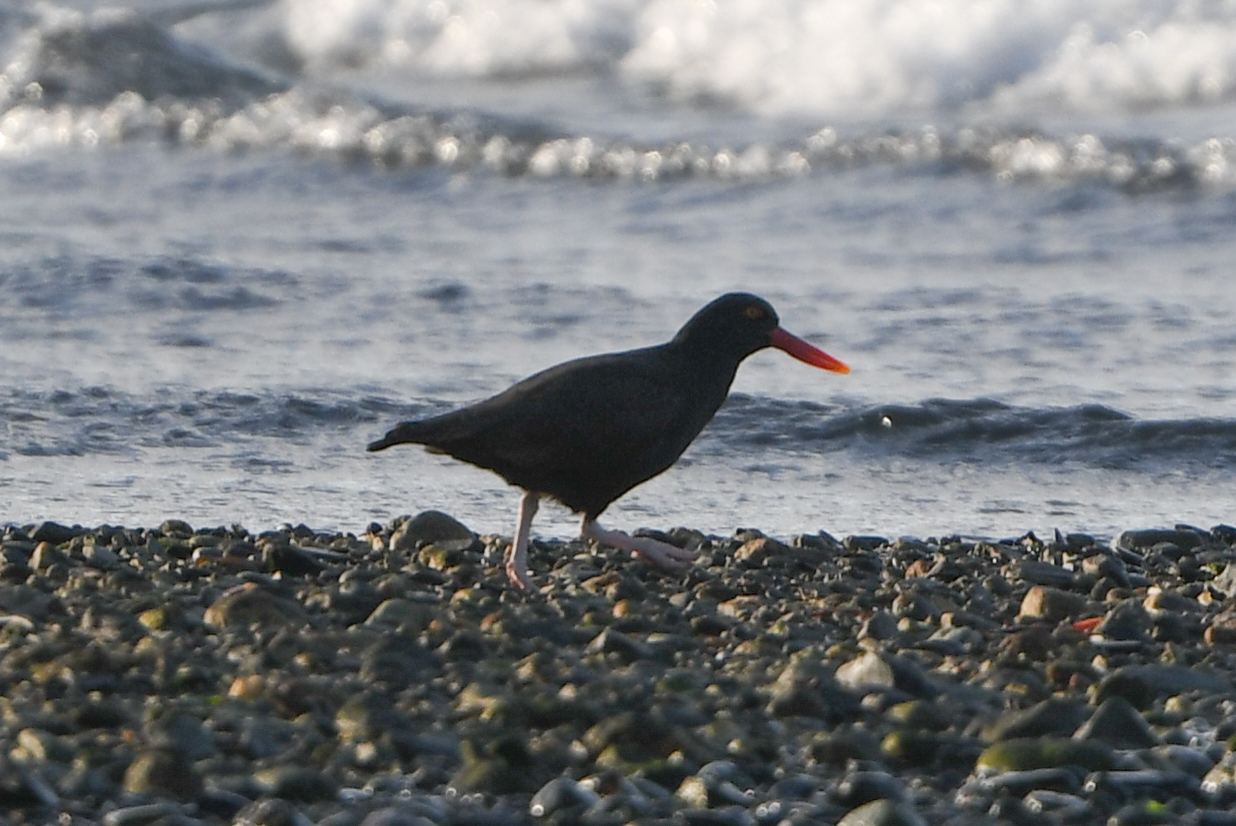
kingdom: Animalia
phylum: Chordata
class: Aves
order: Charadriiformes
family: Haematopodidae
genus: Haematopus
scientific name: Haematopus ater
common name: Blackish oystercatcher
